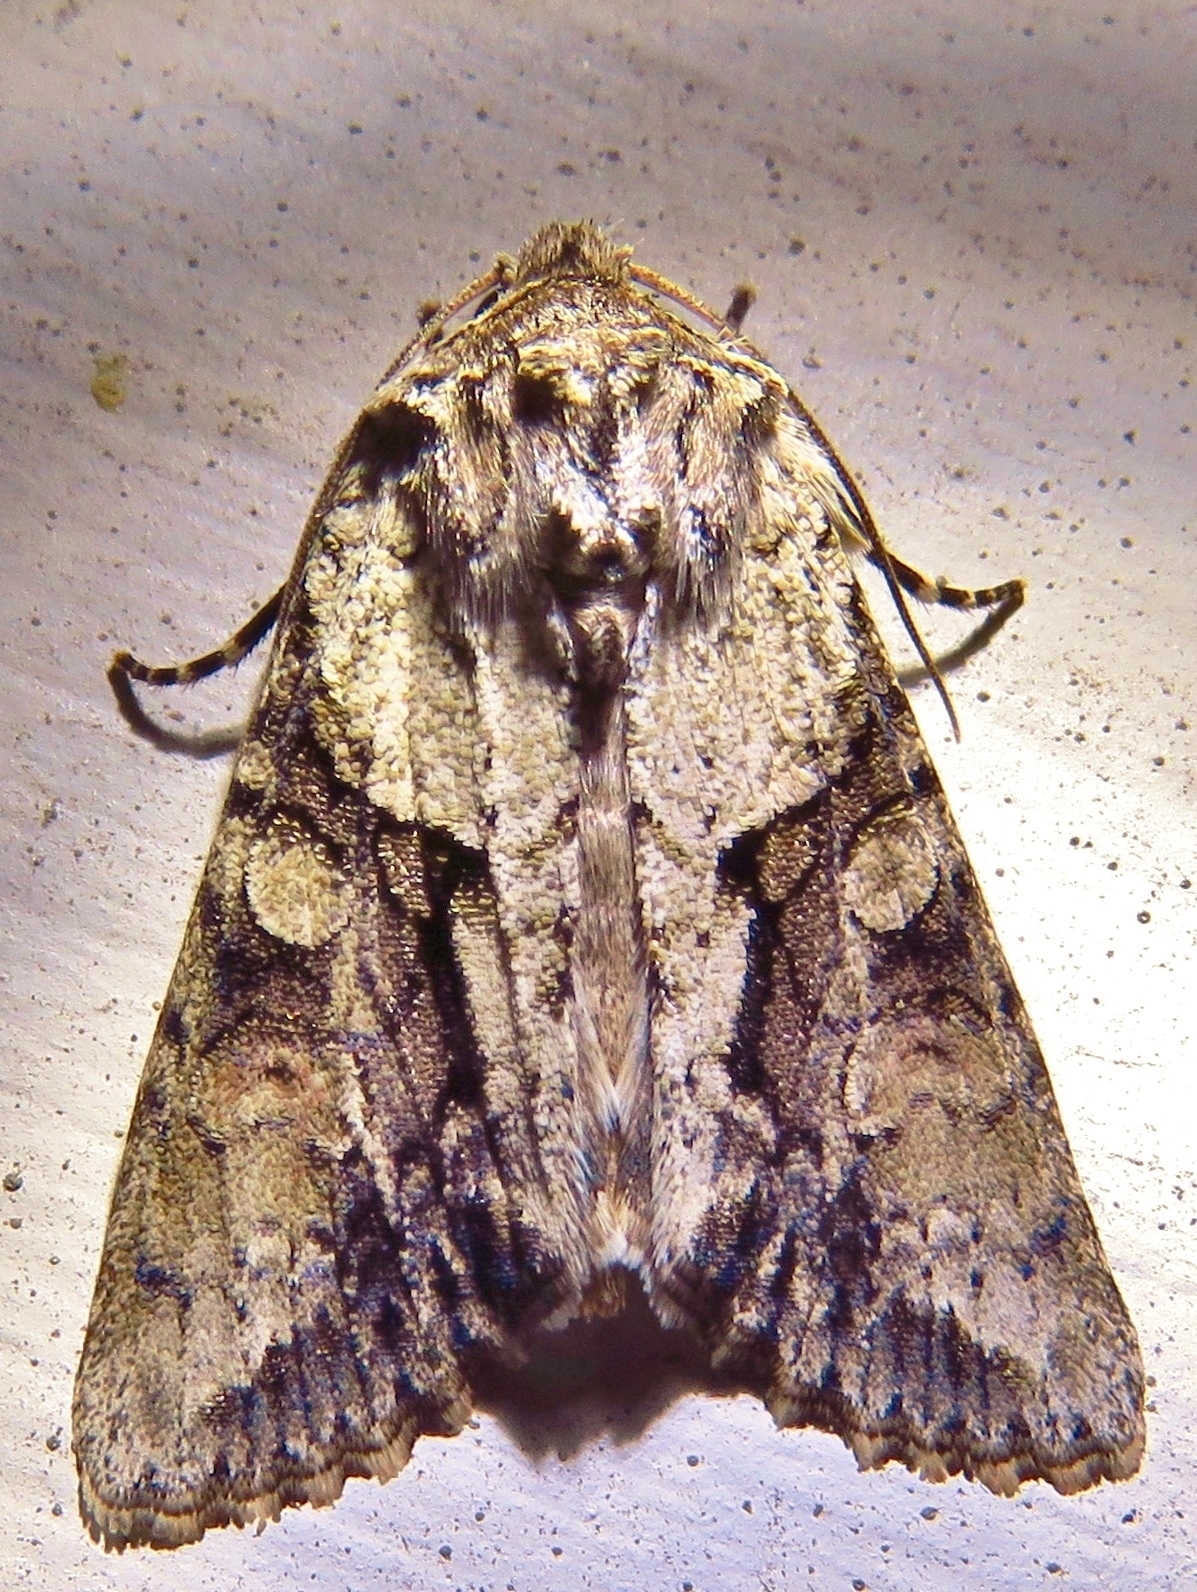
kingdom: Animalia
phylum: Arthropoda
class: Insecta
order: Lepidoptera
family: Noctuidae
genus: Achatia
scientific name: Achatia distincta
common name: Distinct quaker
